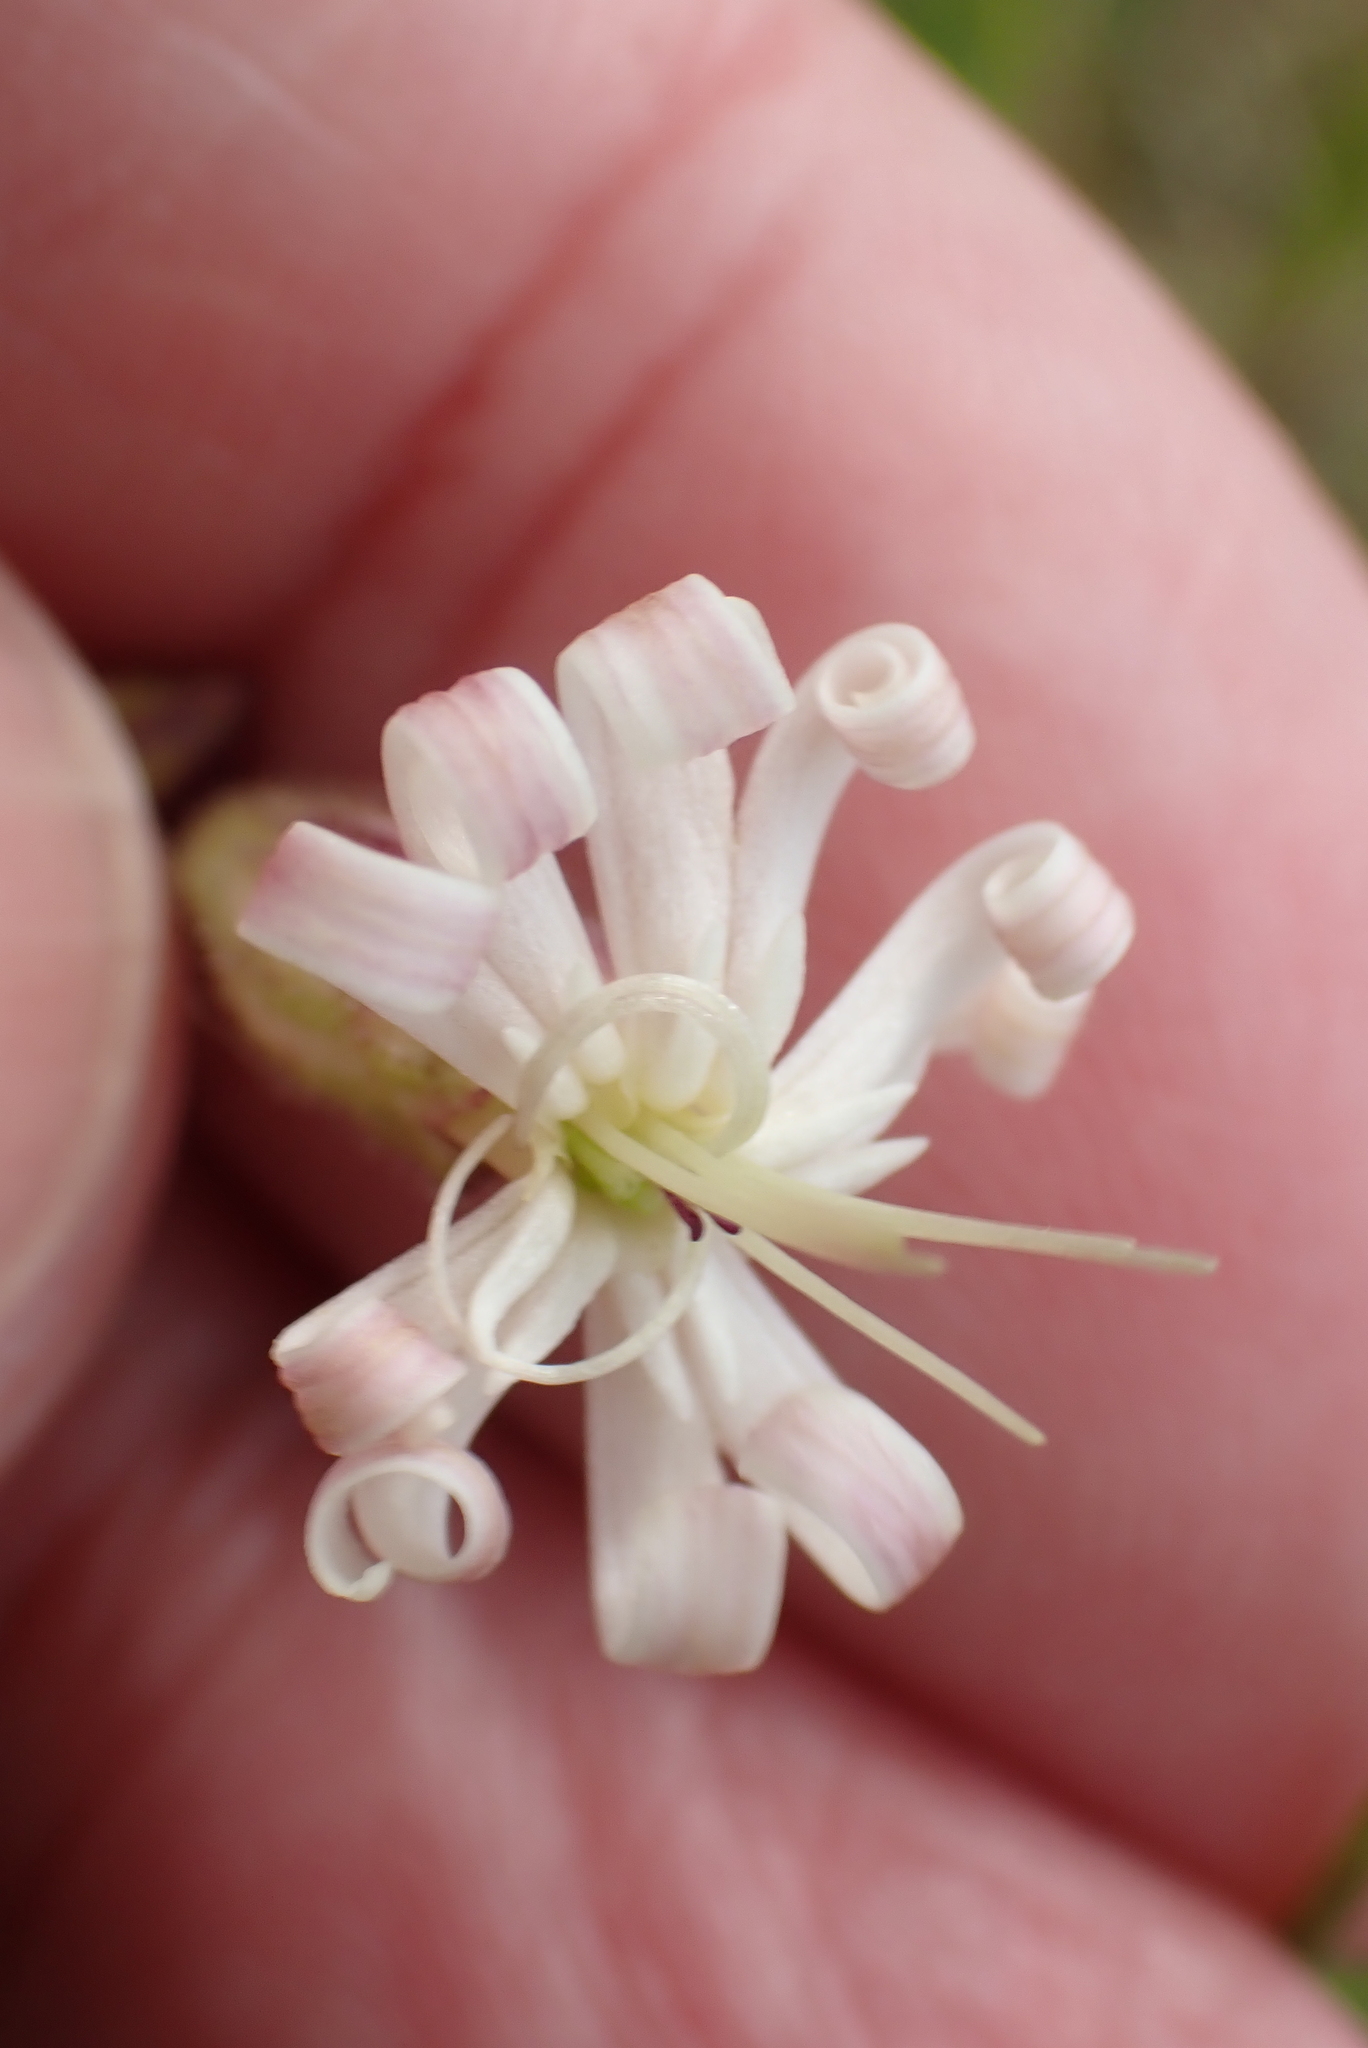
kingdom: Plantae
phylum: Tracheophyta
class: Magnoliopsida
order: Caryophyllales
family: Caryophyllaceae
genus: Silene
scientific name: Silene nutans
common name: Nottingham catchfly
